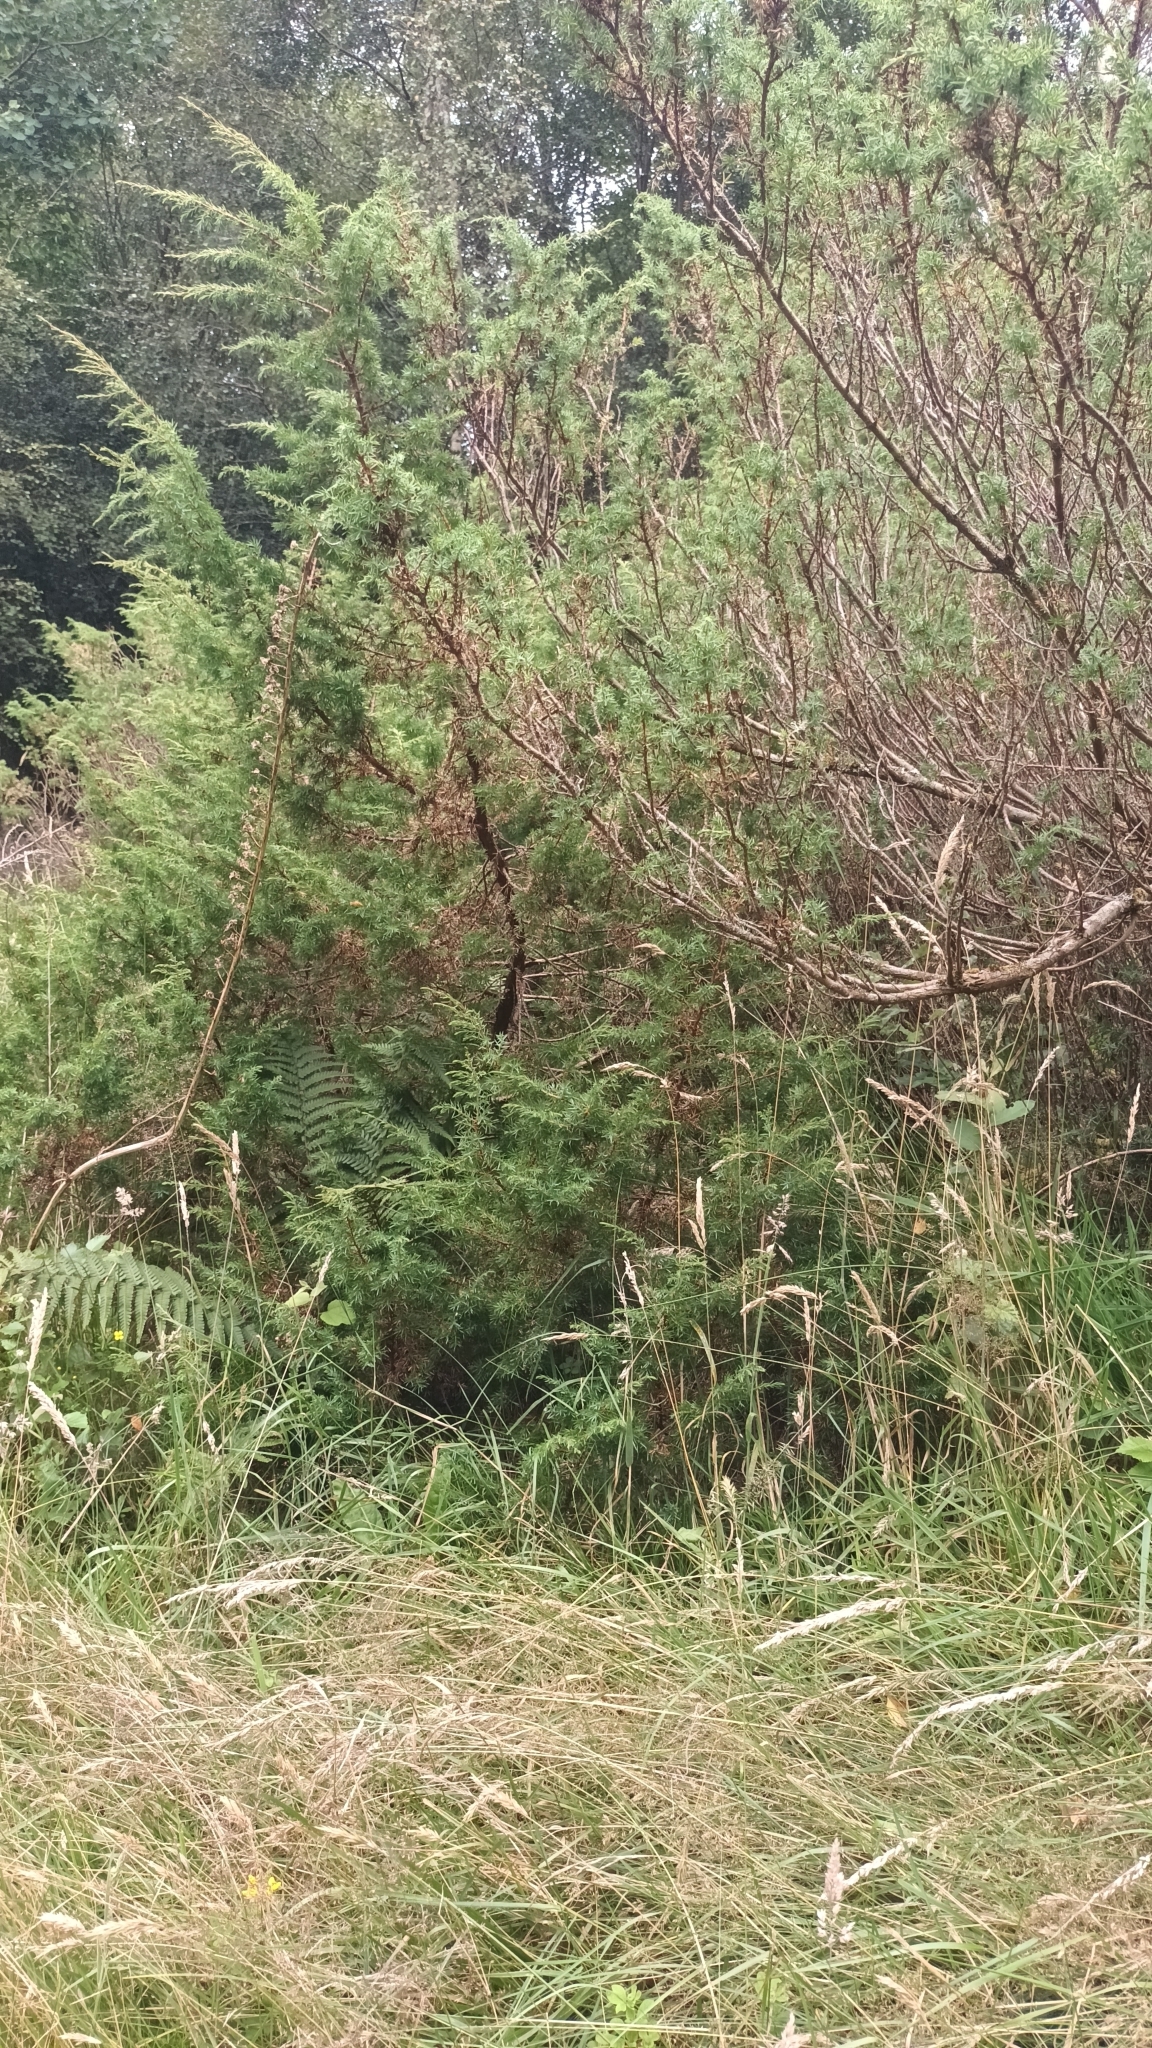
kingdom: Plantae
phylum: Tracheophyta
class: Pinopsida
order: Pinales
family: Cupressaceae
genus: Juniperus
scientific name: Juniperus communis
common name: Common juniper
